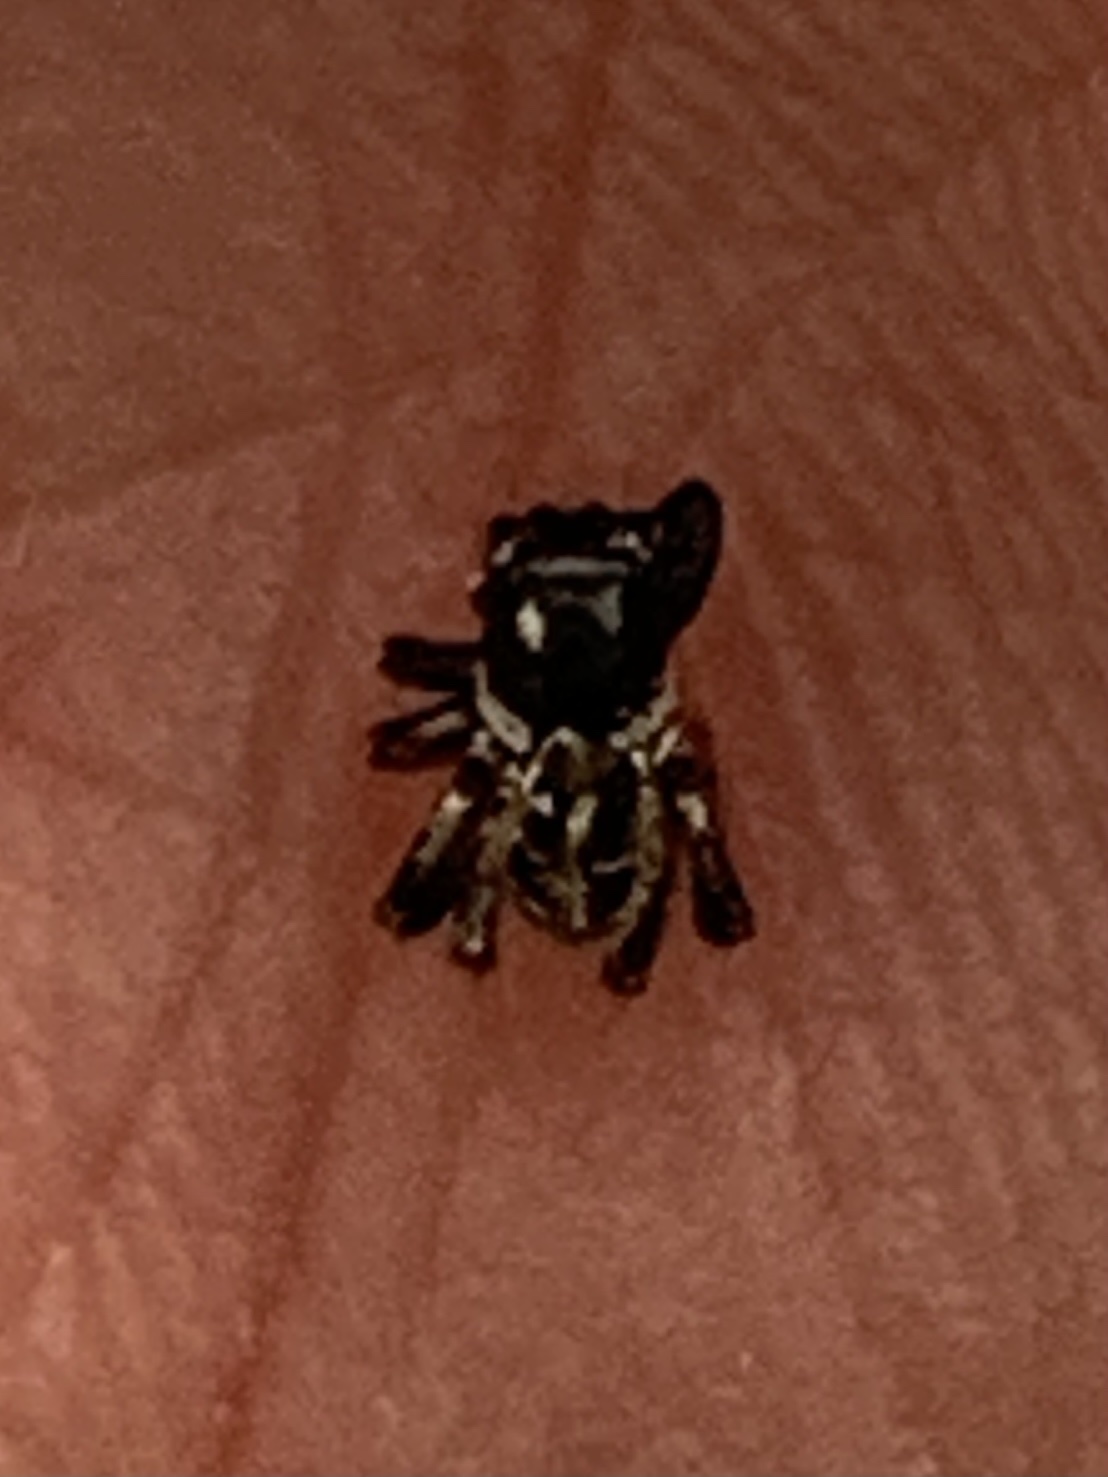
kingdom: Animalia
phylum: Arthropoda
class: Arachnida
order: Araneae
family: Salticidae
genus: Anasaitis
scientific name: Anasaitis canosa
